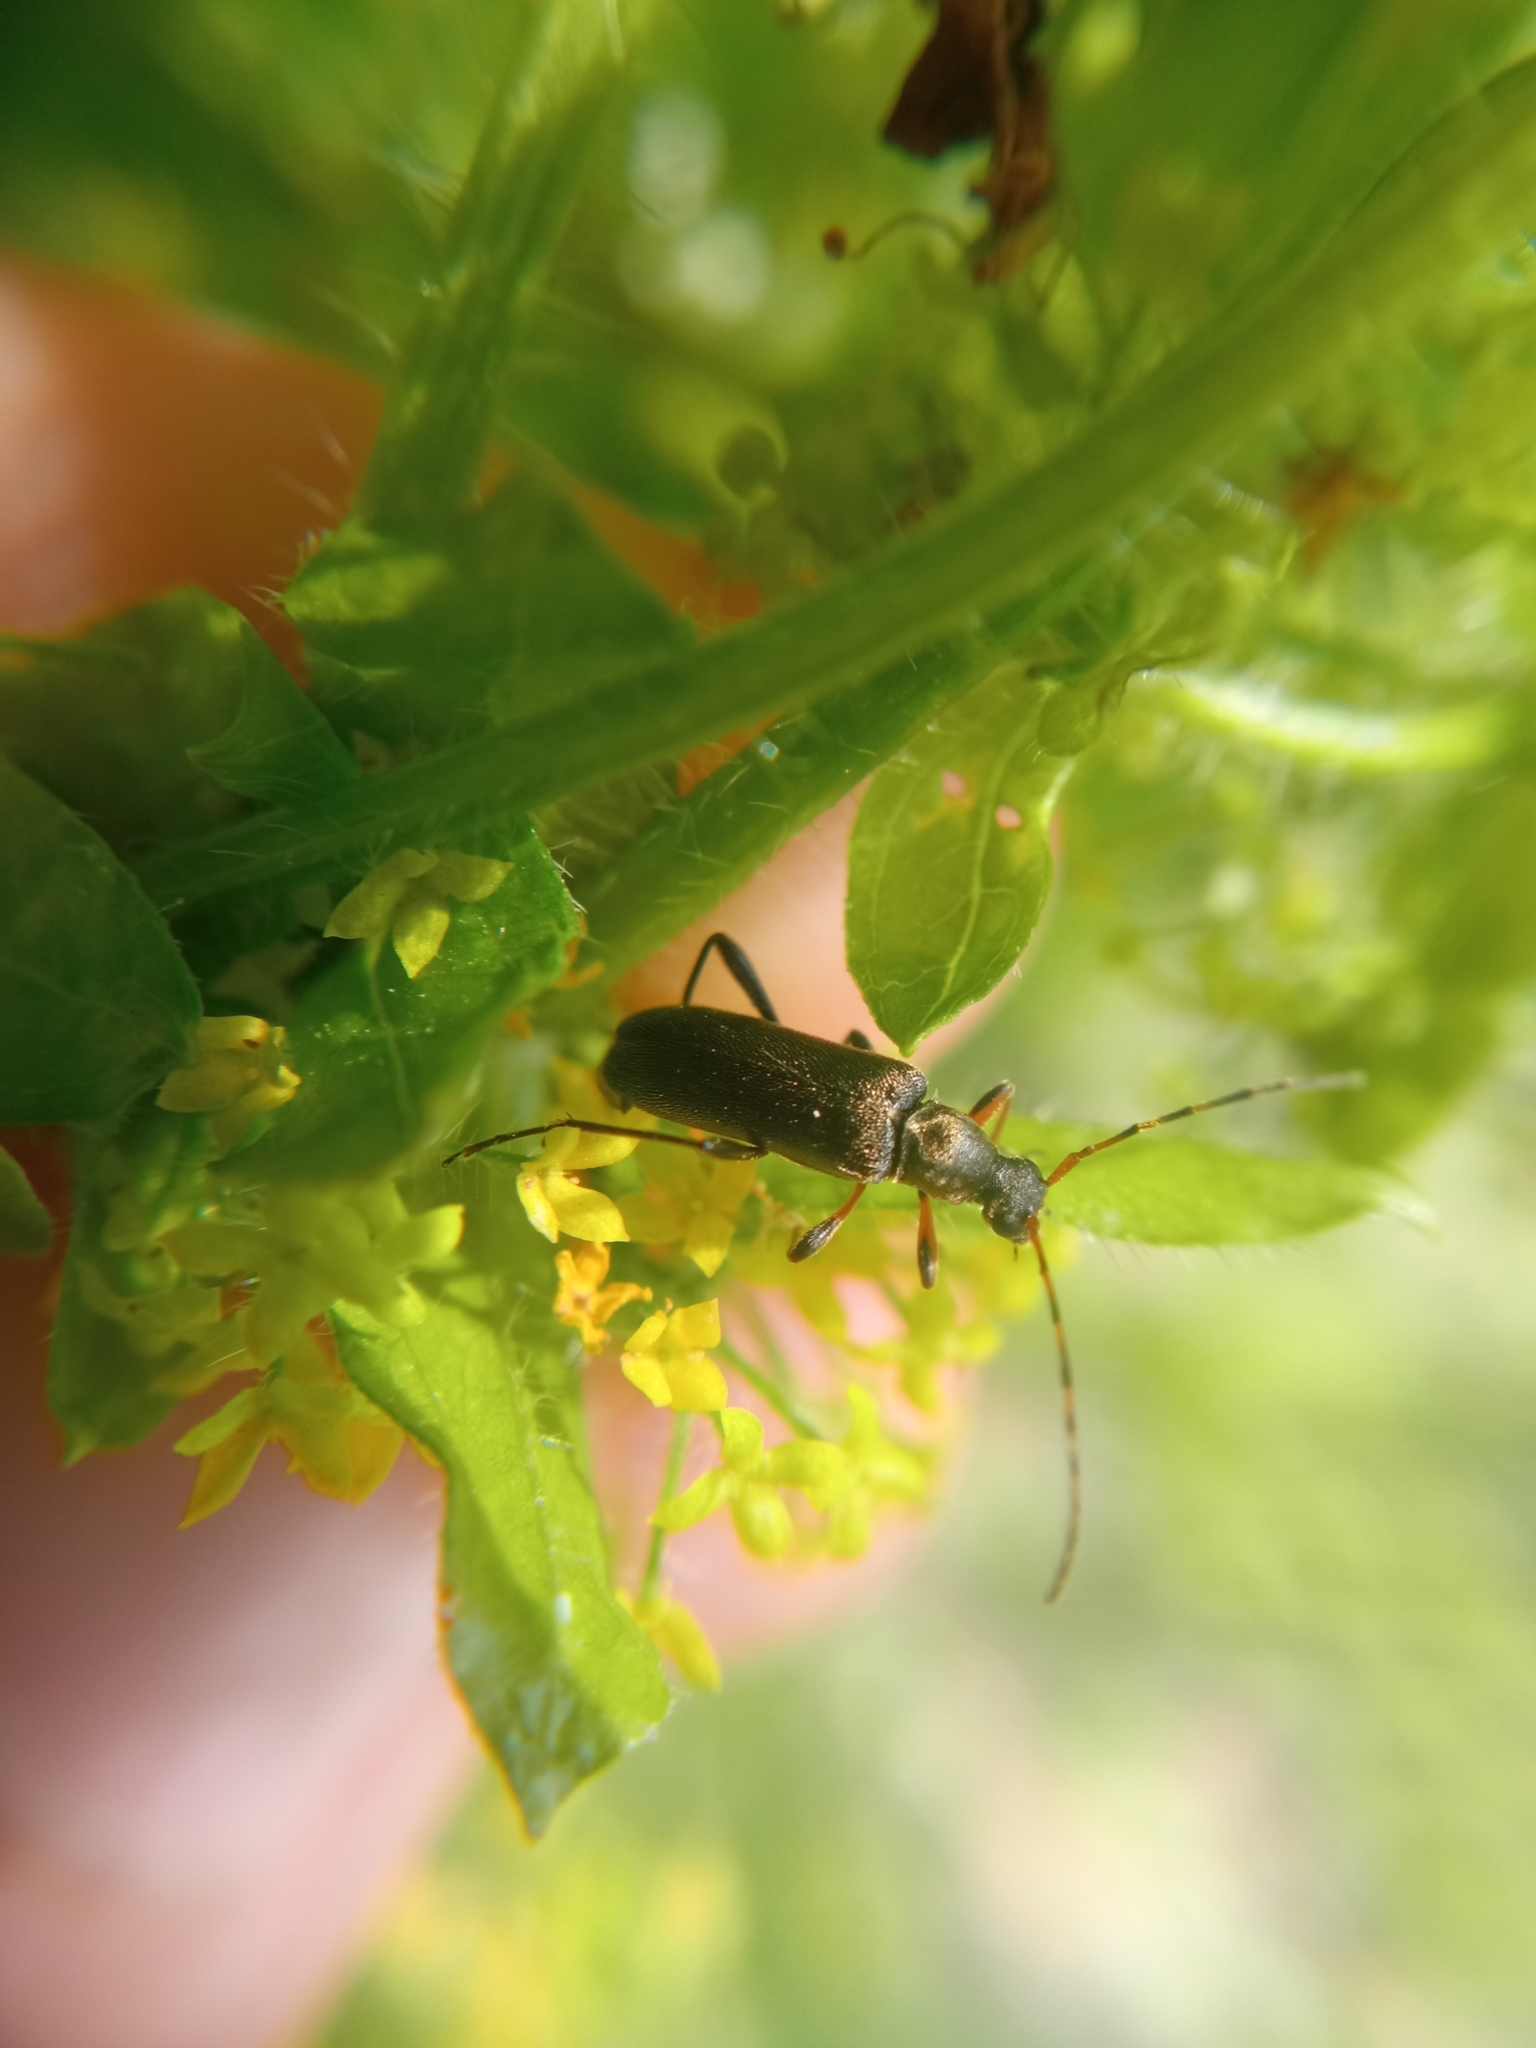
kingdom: Animalia
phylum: Arthropoda
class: Insecta
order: Coleoptera
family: Cerambycidae
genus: Grammoptera
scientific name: Grammoptera ruficornis
